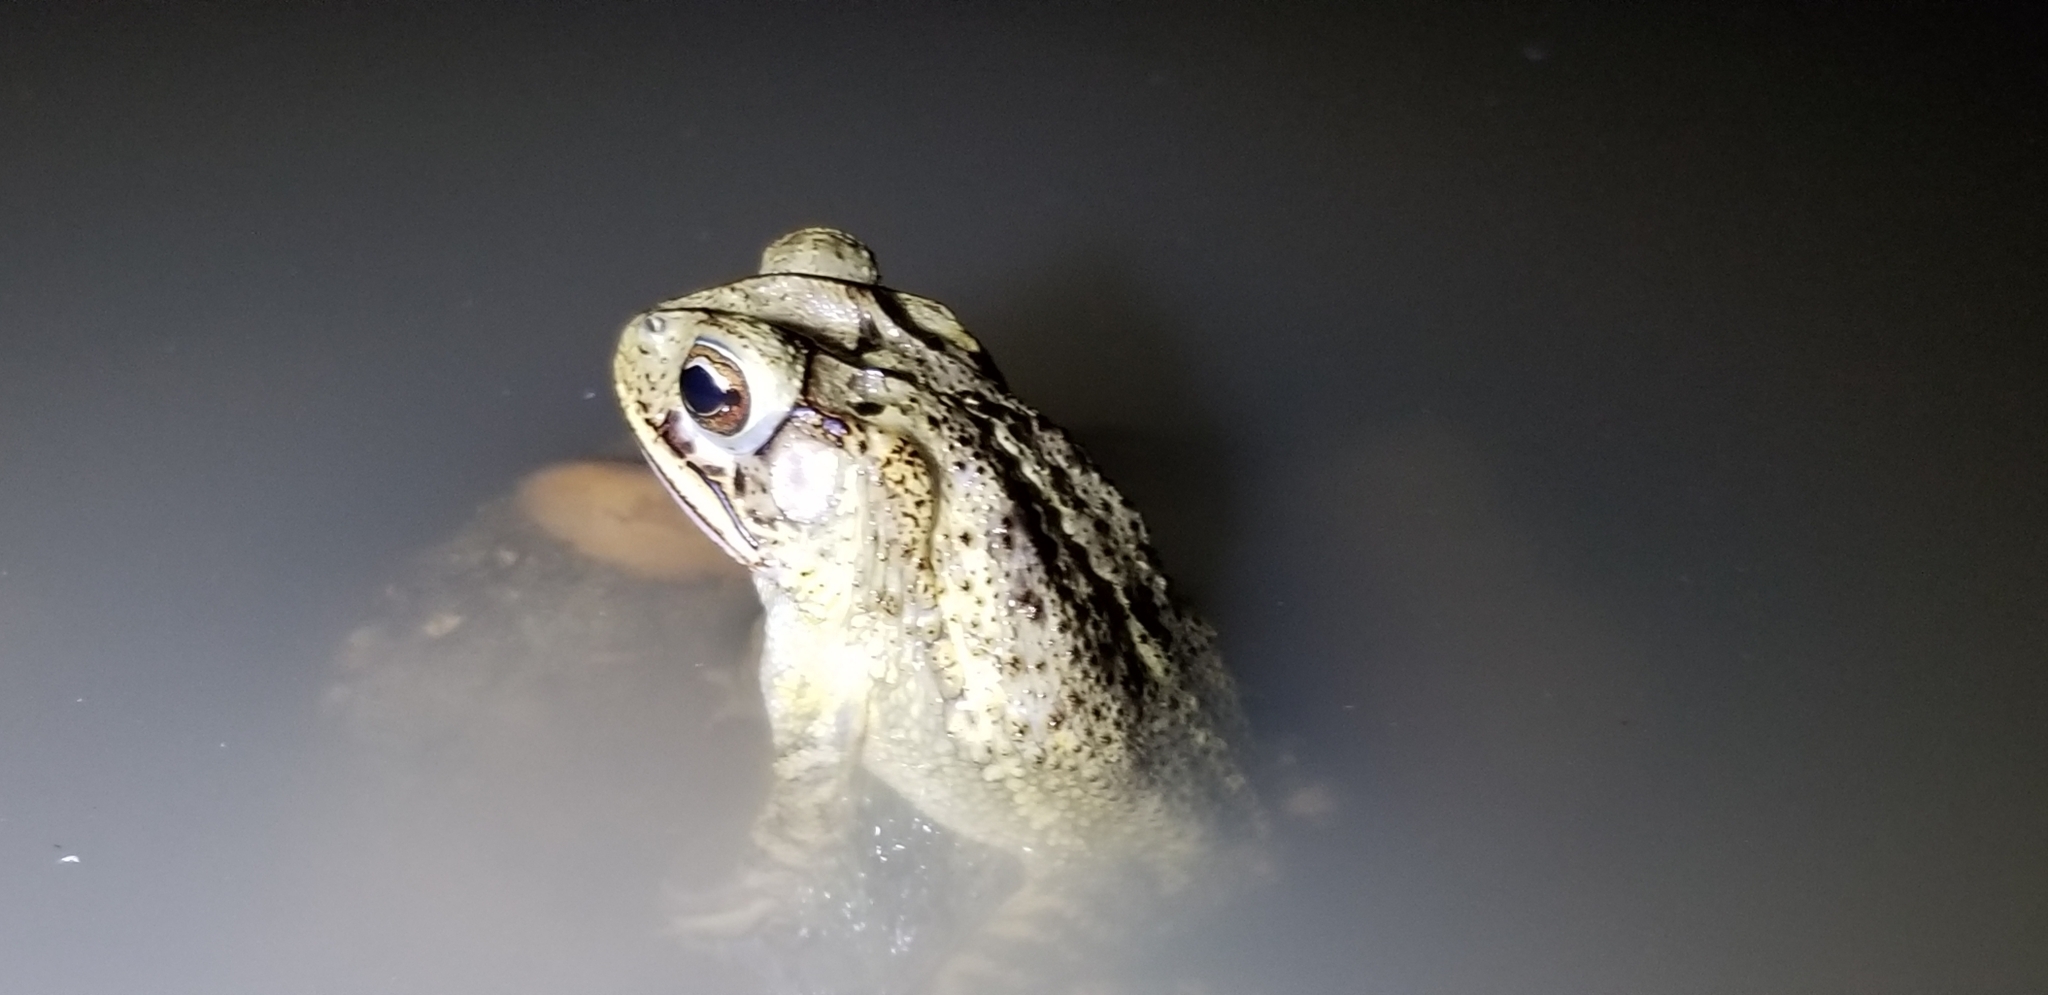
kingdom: Animalia
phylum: Chordata
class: Amphibia
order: Anura
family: Bufonidae
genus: Incilius
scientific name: Incilius nebulifer
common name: Gulf coast toad
